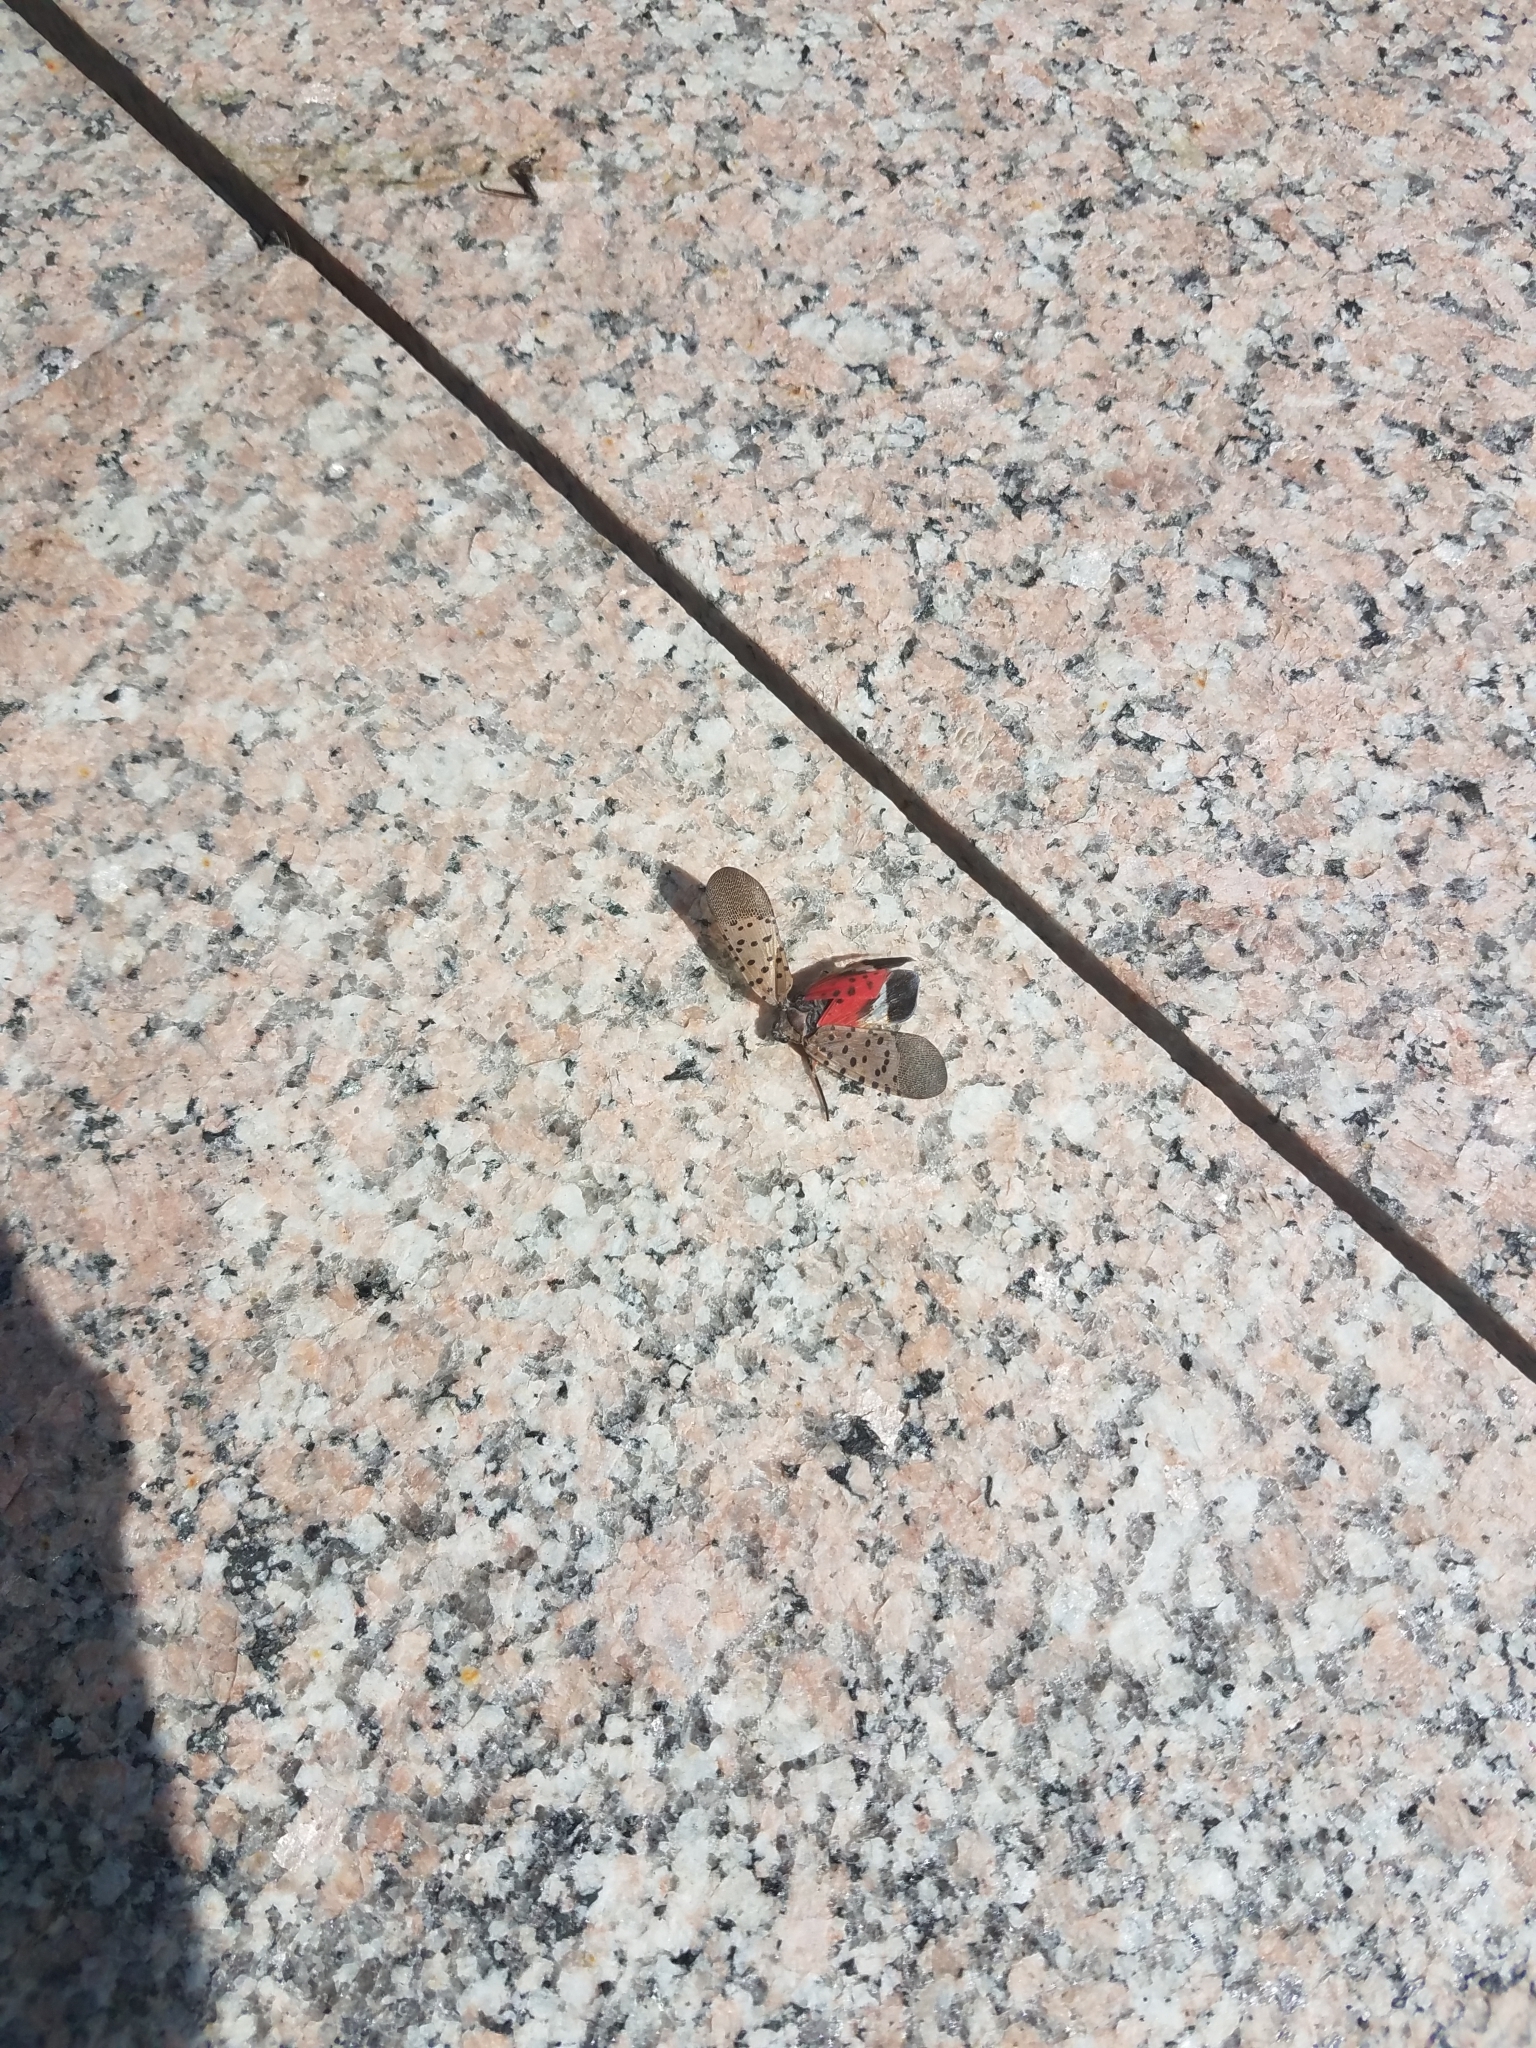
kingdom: Animalia
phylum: Arthropoda
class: Insecta
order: Hemiptera
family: Fulgoridae
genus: Lycorma
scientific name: Lycorma delicatula
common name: Spotted lanternfly
